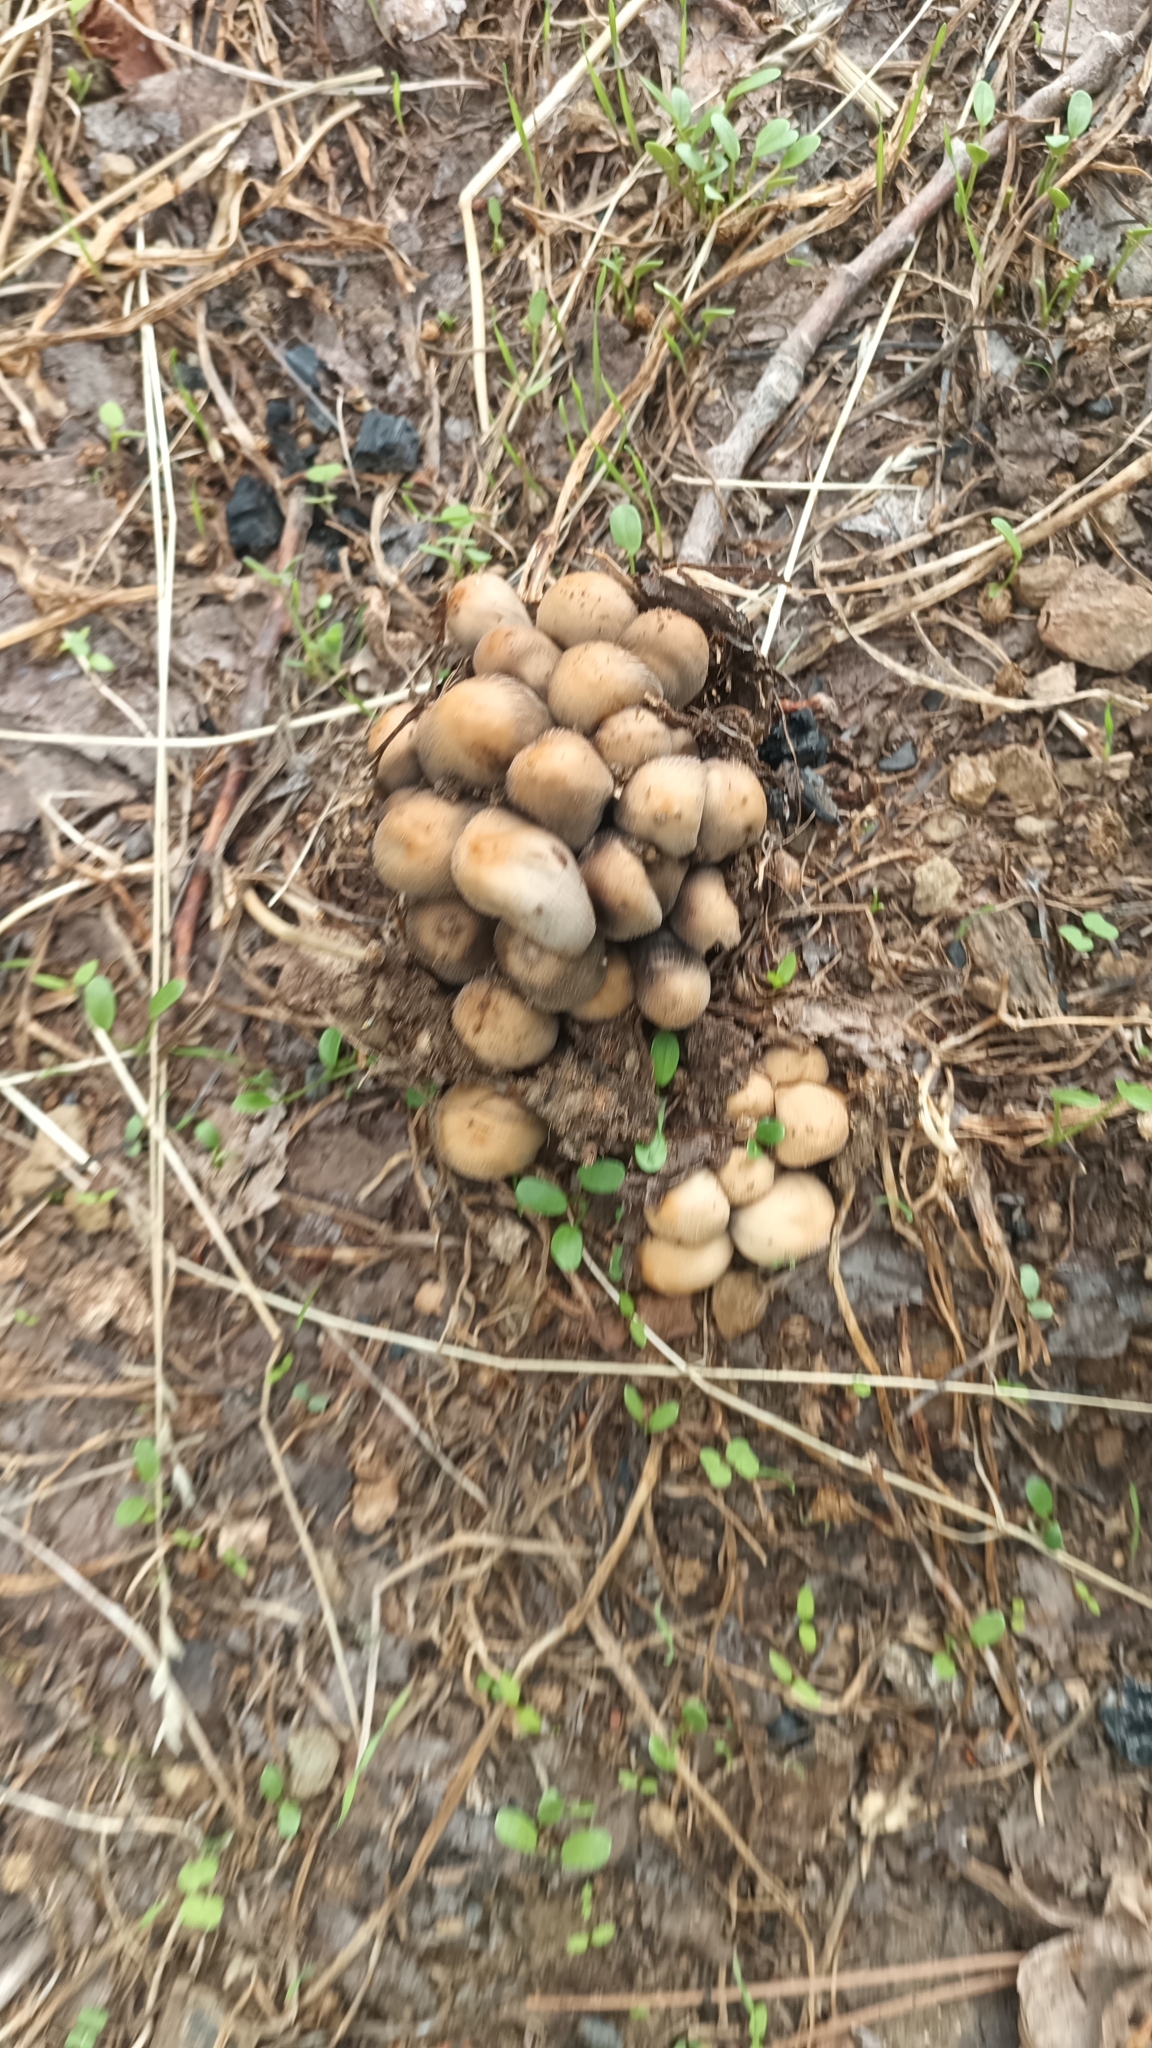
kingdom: Fungi
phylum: Basidiomycota
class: Agaricomycetes
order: Agaricales
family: Psathyrellaceae
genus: Coprinellus
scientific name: Coprinellus micaceus
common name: Glistening ink-cap
